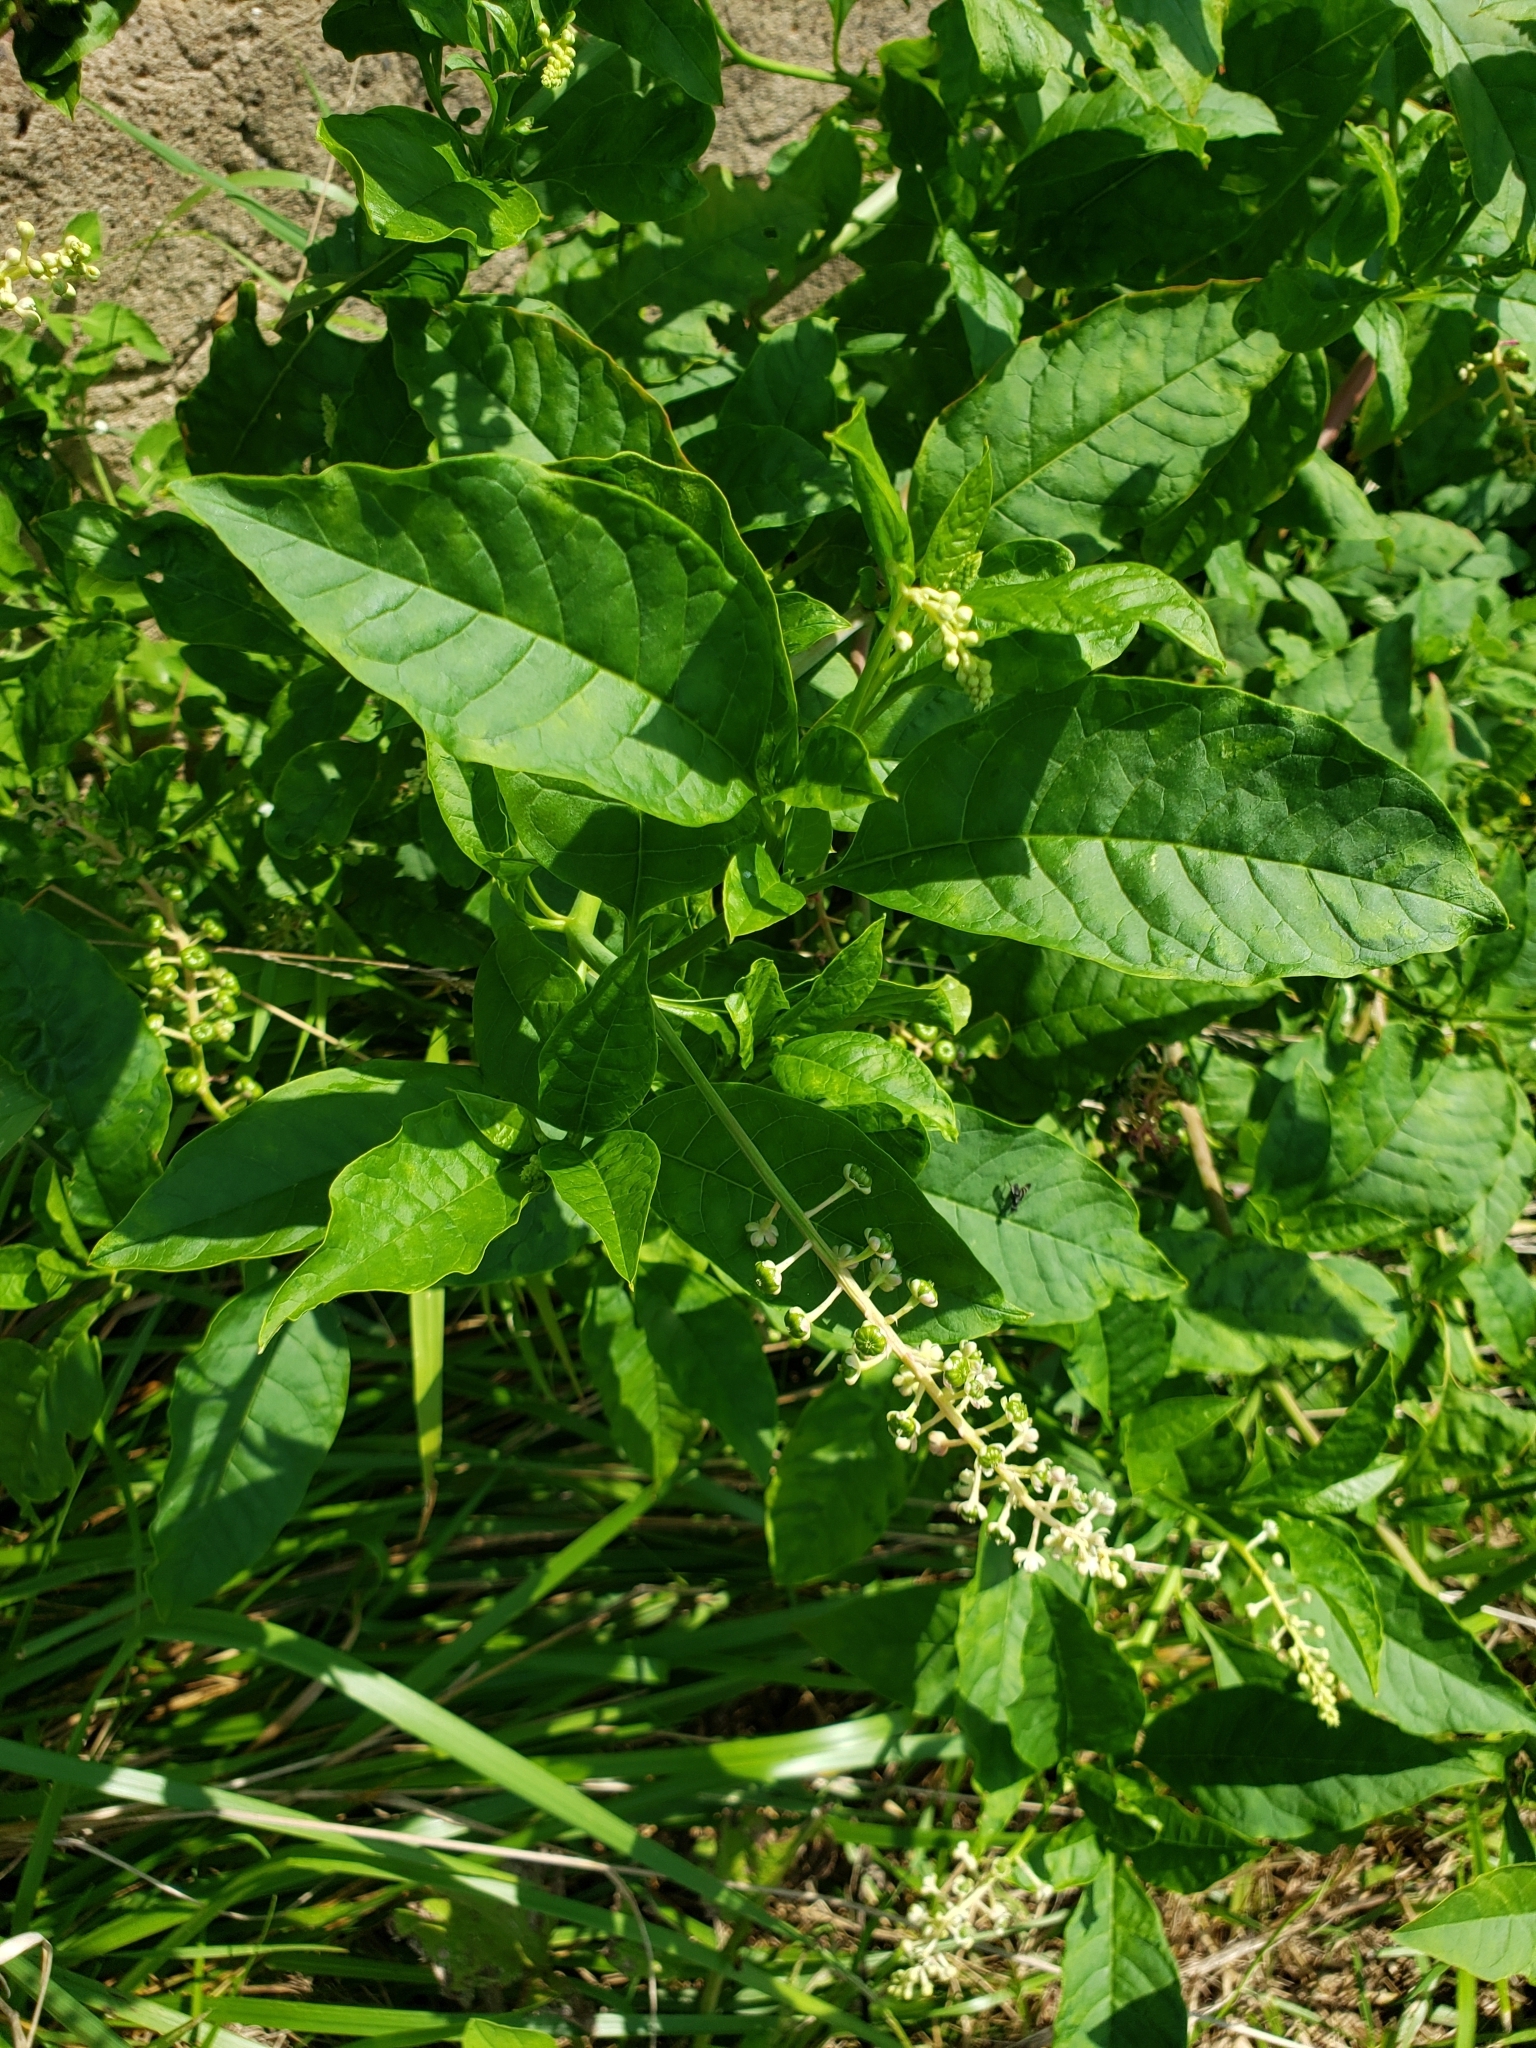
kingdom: Plantae
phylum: Tracheophyta
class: Magnoliopsida
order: Caryophyllales
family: Phytolaccaceae
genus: Phytolacca
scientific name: Phytolacca americana
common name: American pokeweed
